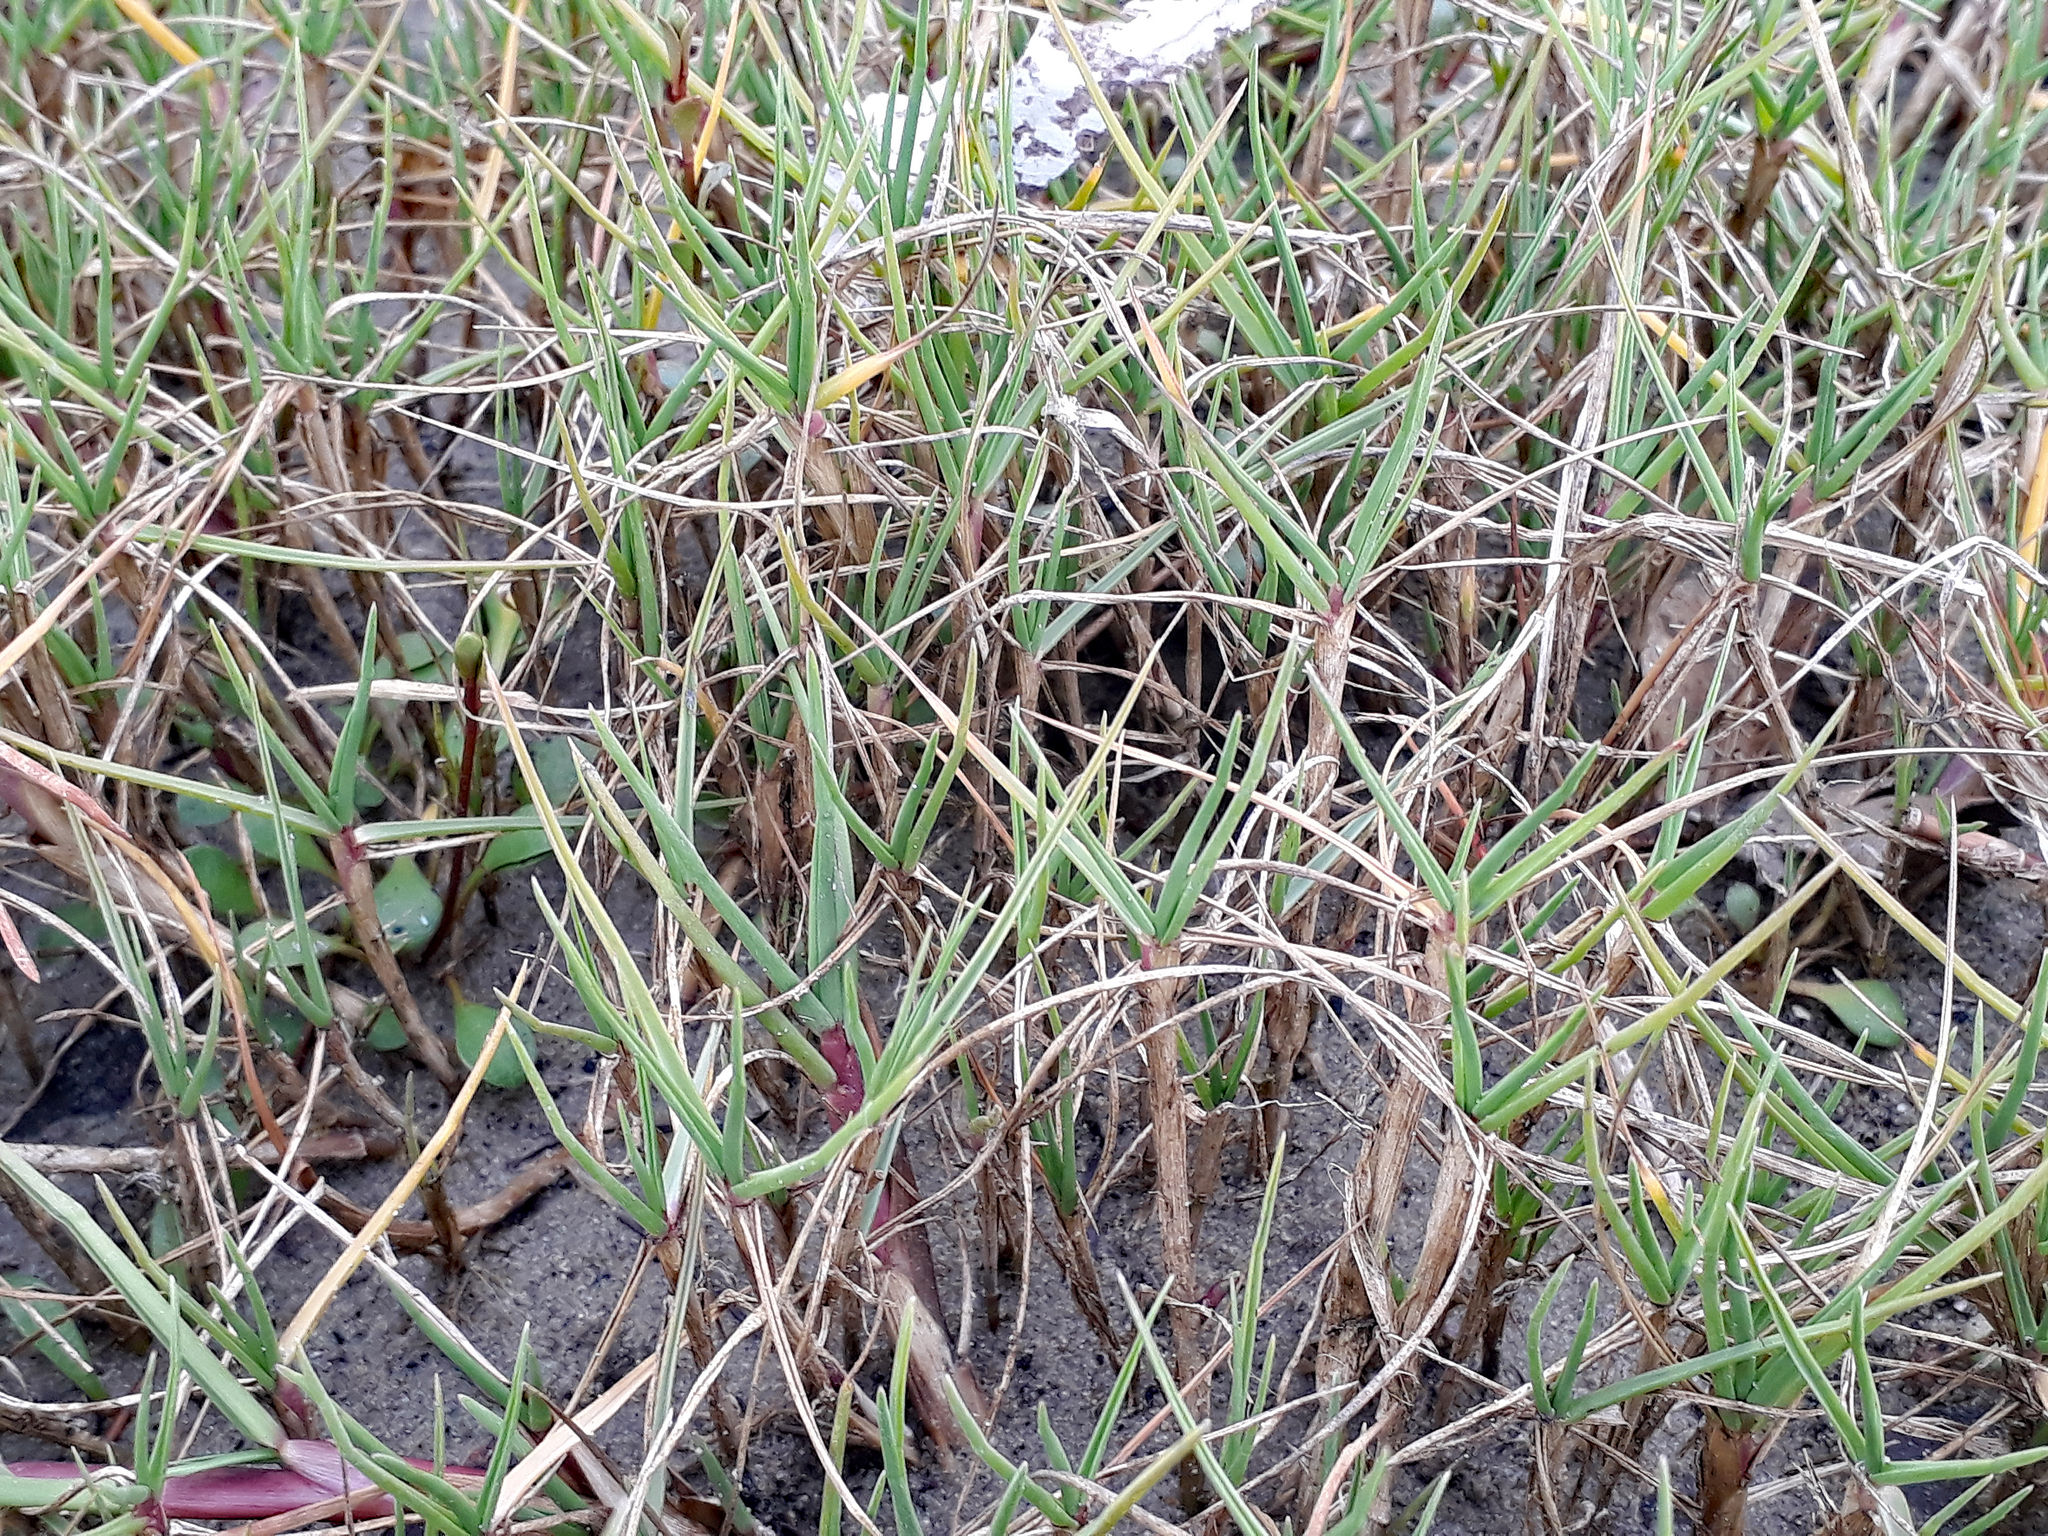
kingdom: Plantae
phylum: Tracheophyta
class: Liliopsida
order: Poales
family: Poaceae
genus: Paspalum
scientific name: Paspalum vaginatum
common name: Seashore paspalum
